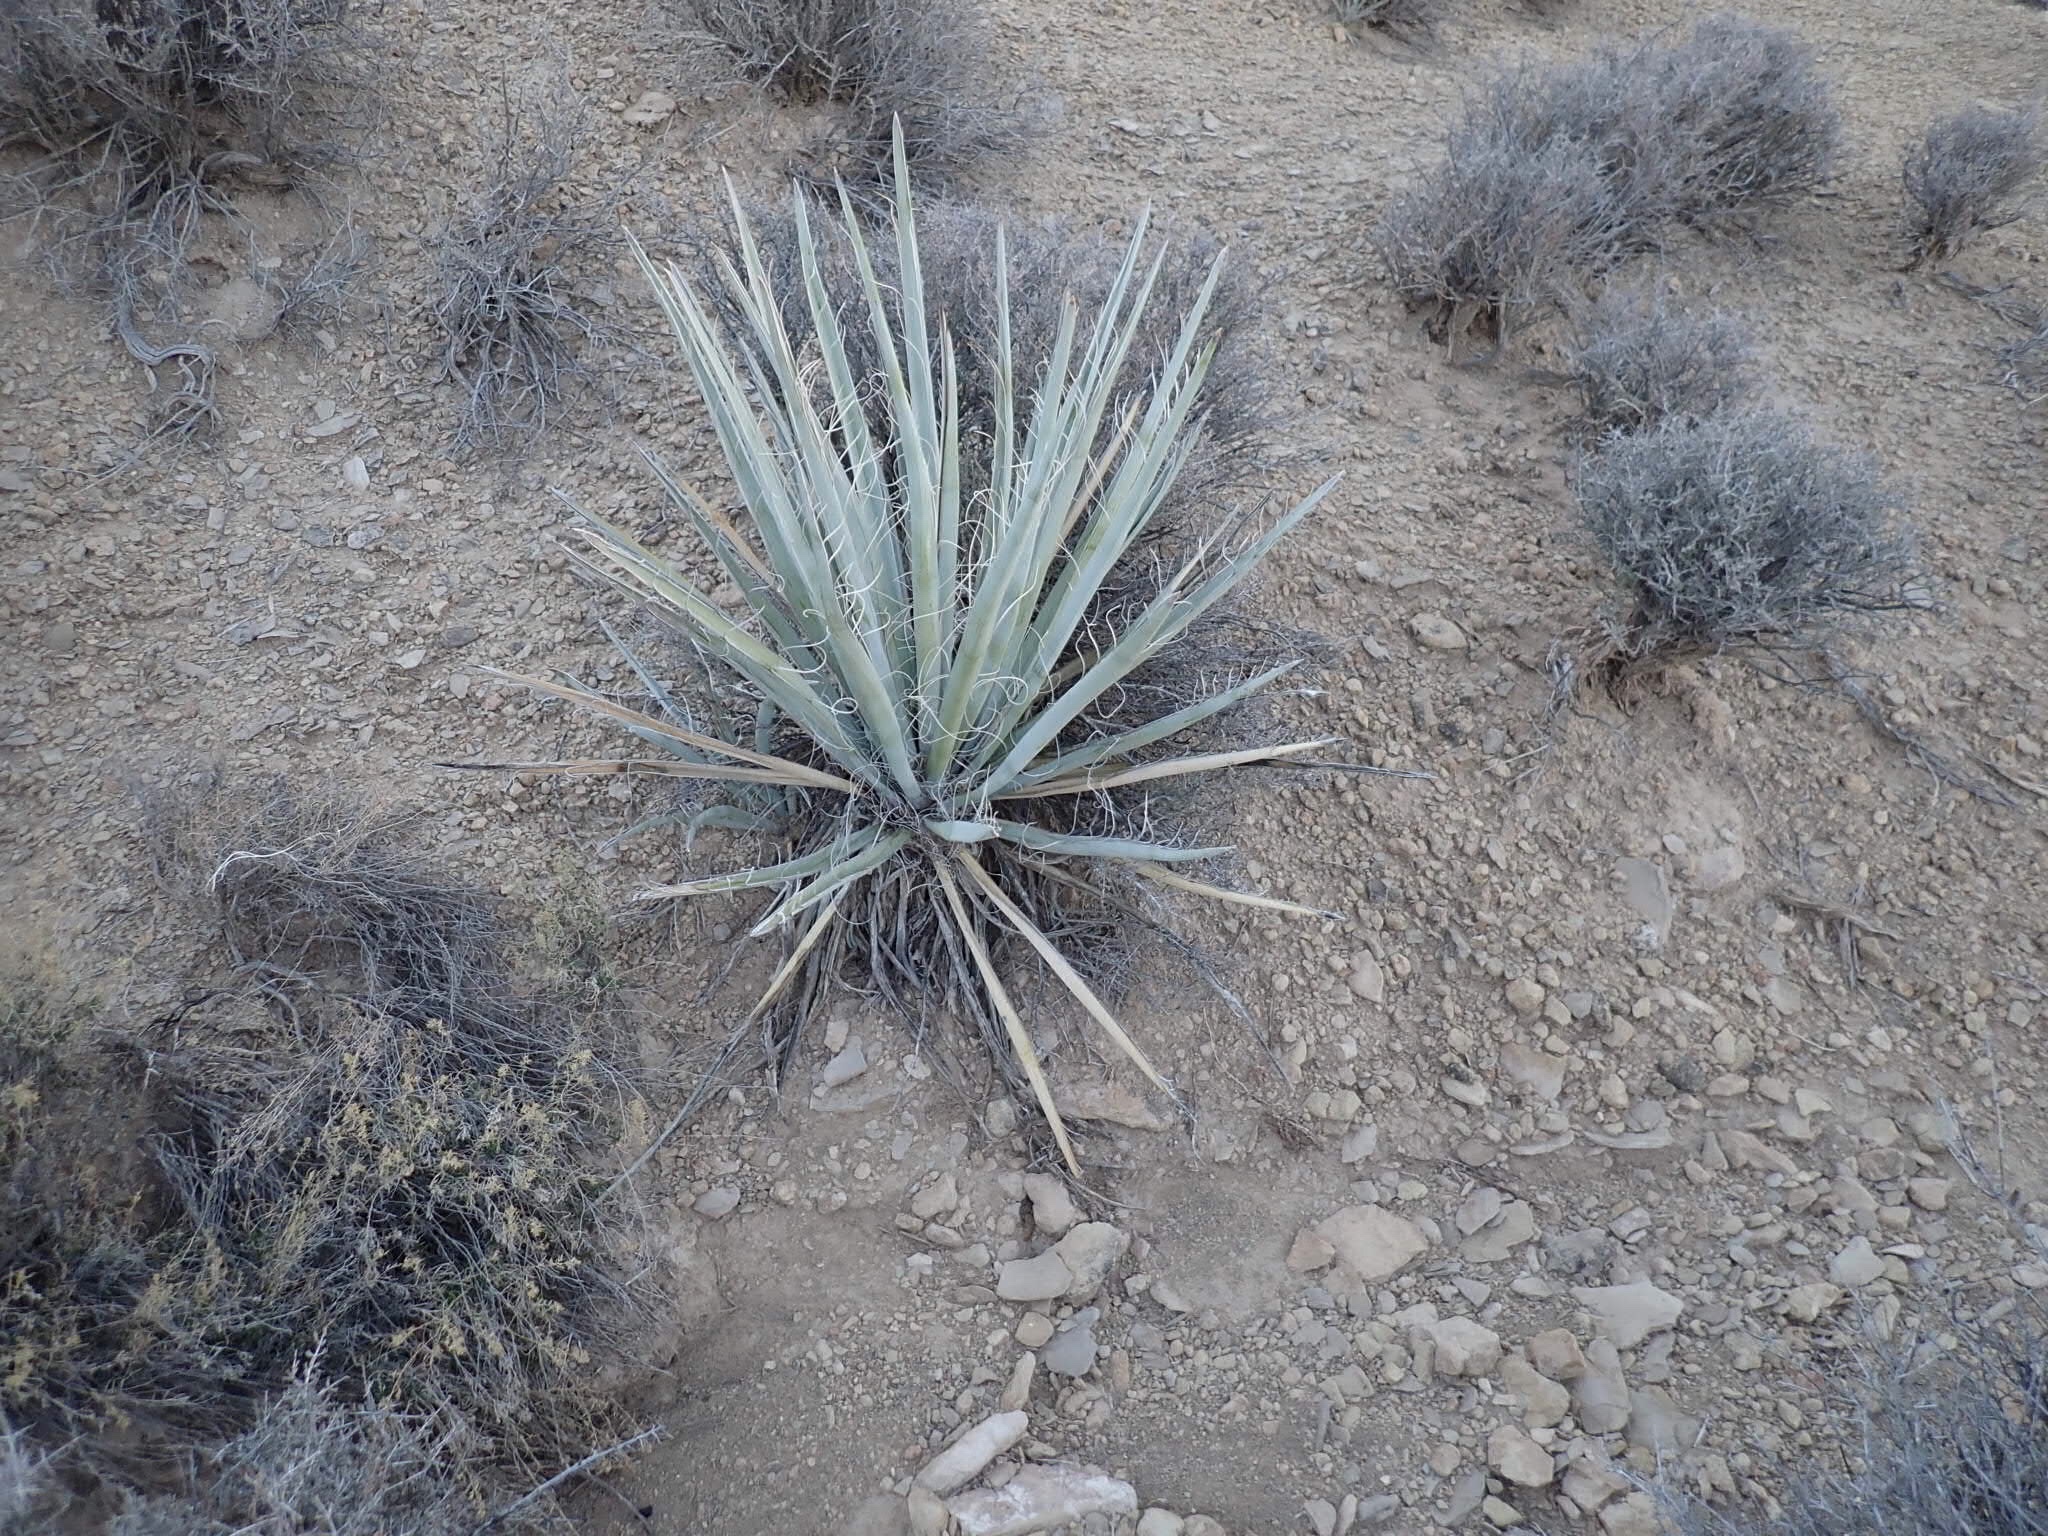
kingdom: Plantae
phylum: Tracheophyta
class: Liliopsida
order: Asparagales
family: Asparagaceae
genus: Yucca
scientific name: Yucca baccata
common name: Banana yucca
